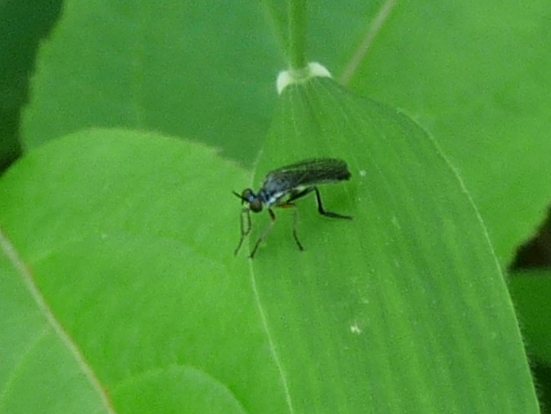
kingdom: Animalia
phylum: Arthropoda
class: Insecta
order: Diptera
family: Asilidae
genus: Dioctria
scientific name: Dioctria hyalipennis
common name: Stripe-legged robberfly
